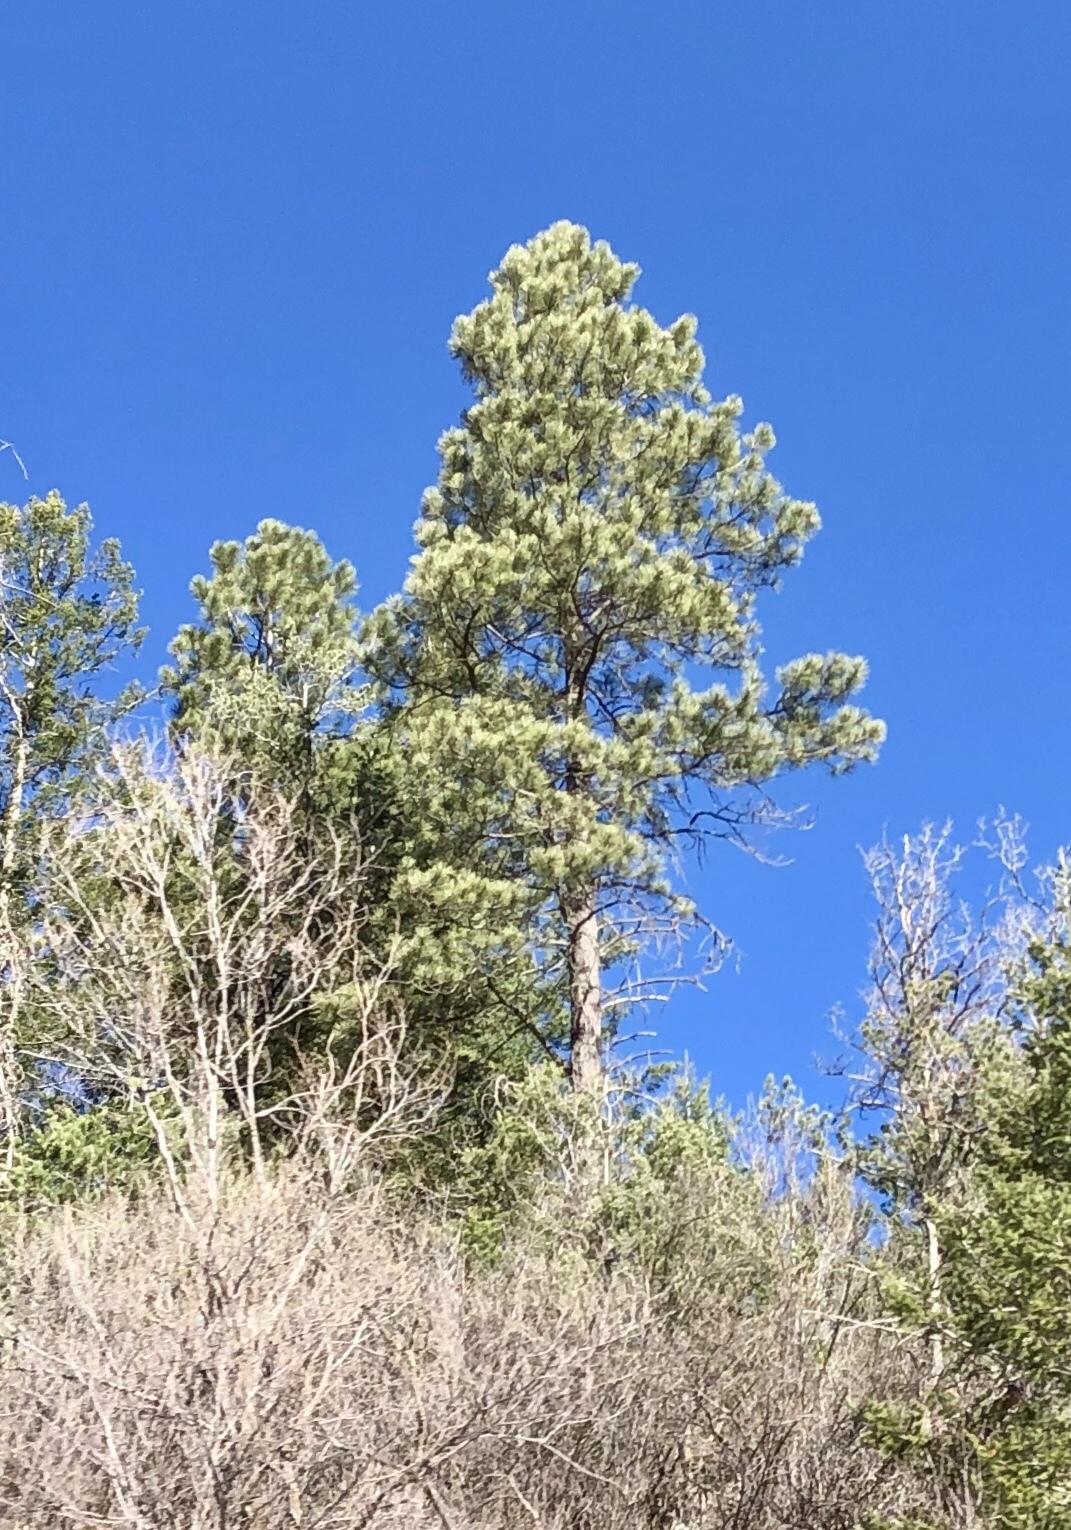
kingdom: Plantae
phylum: Tracheophyta
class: Pinopsida
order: Pinales
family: Pinaceae
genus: Pinus
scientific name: Pinus ponderosa
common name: Western yellow-pine
